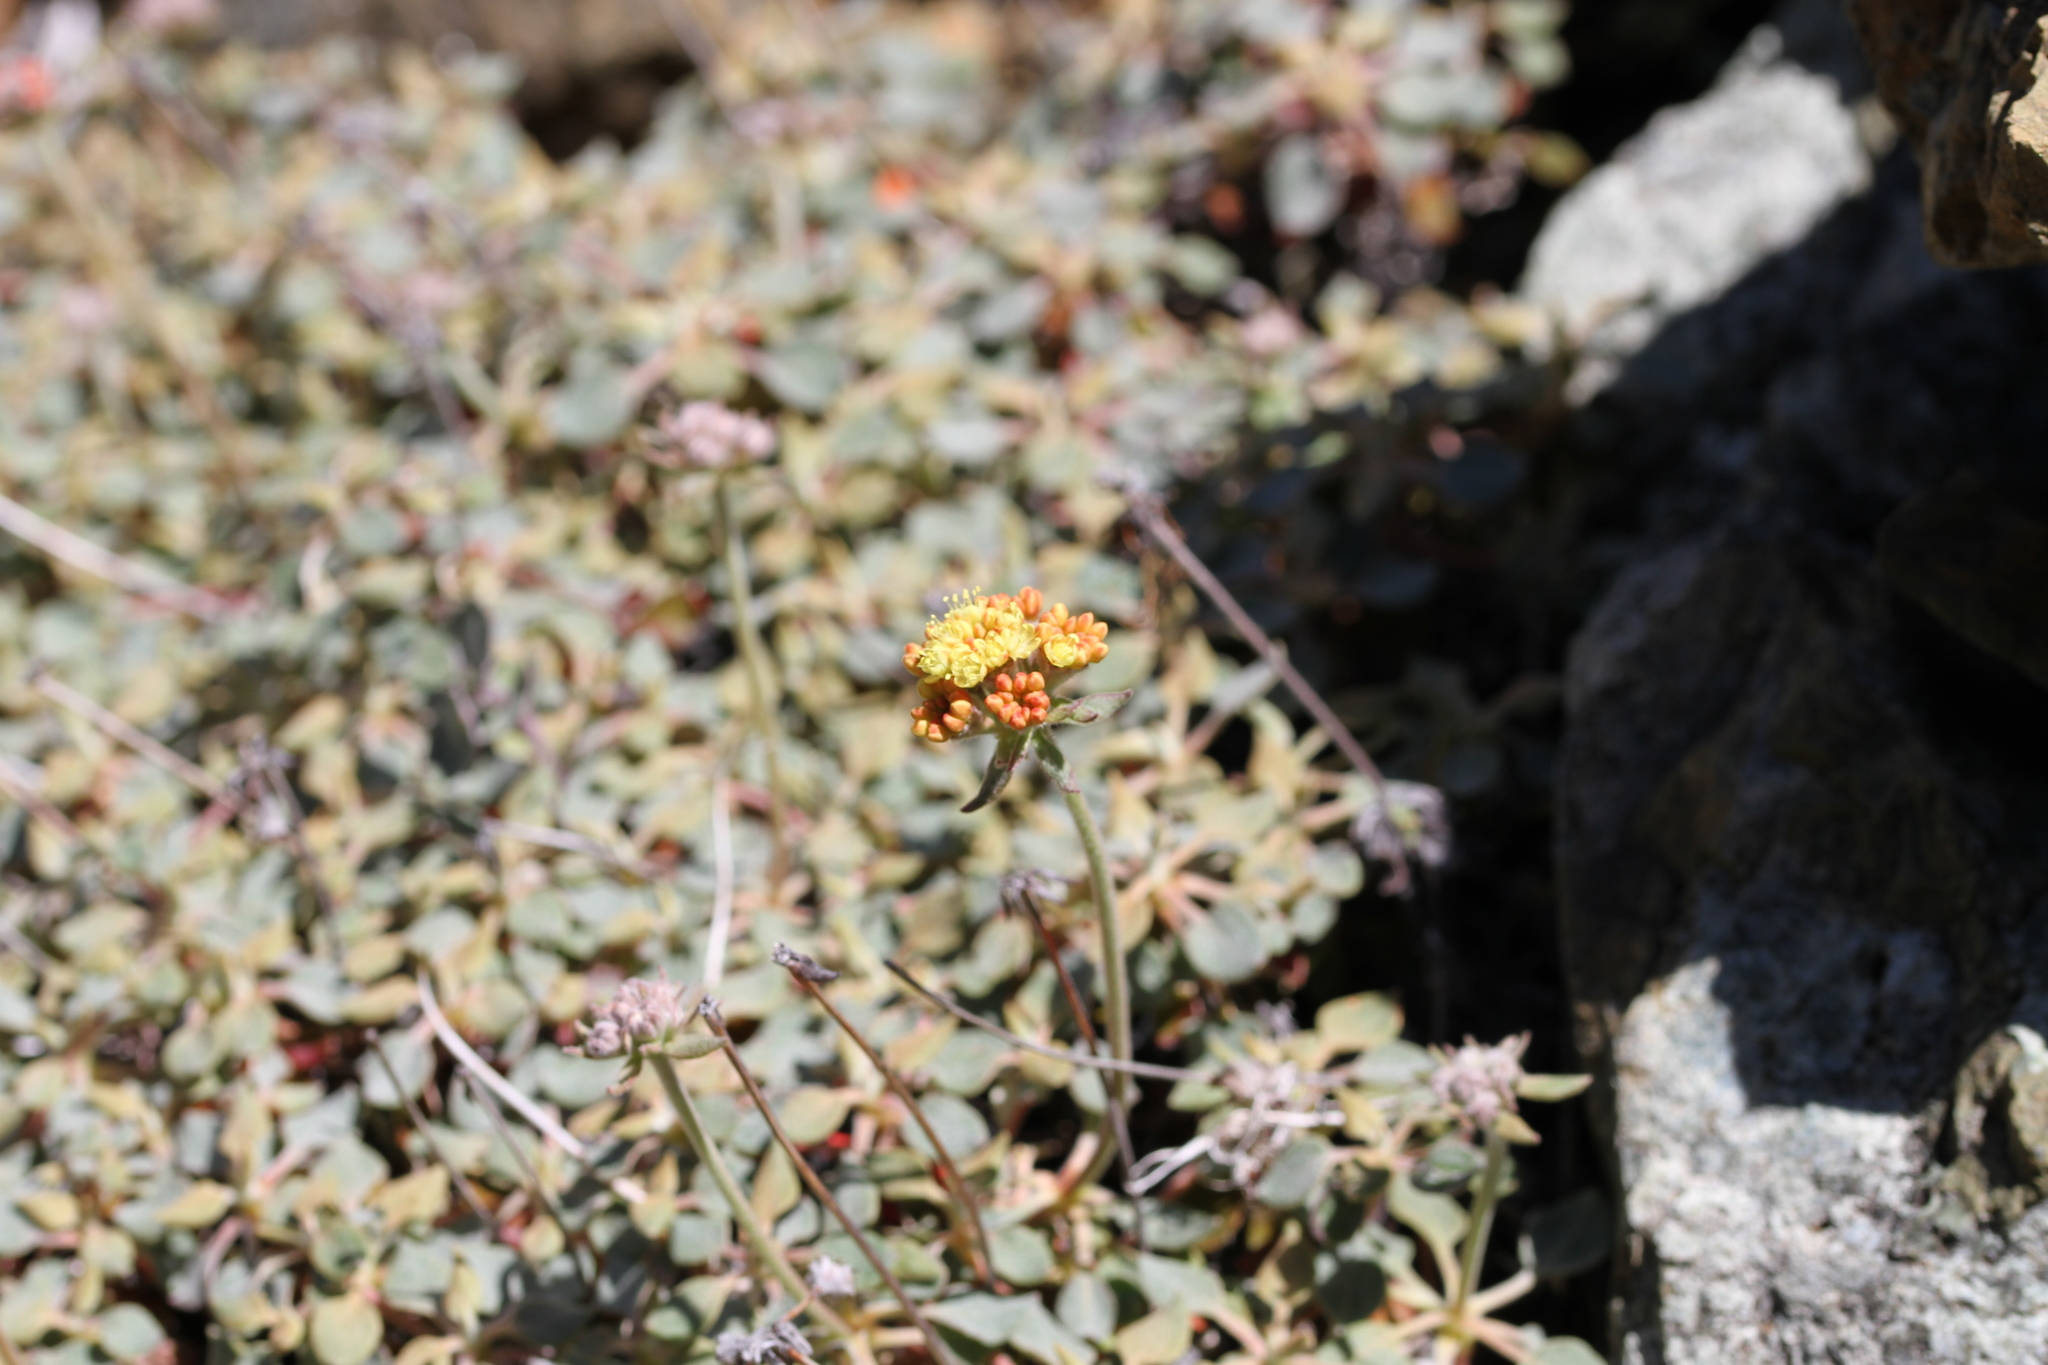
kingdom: Plantae
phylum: Tracheophyta
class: Magnoliopsida
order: Caryophyllales
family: Polygonaceae
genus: Eriogonum
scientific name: Eriogonum cedrorum
